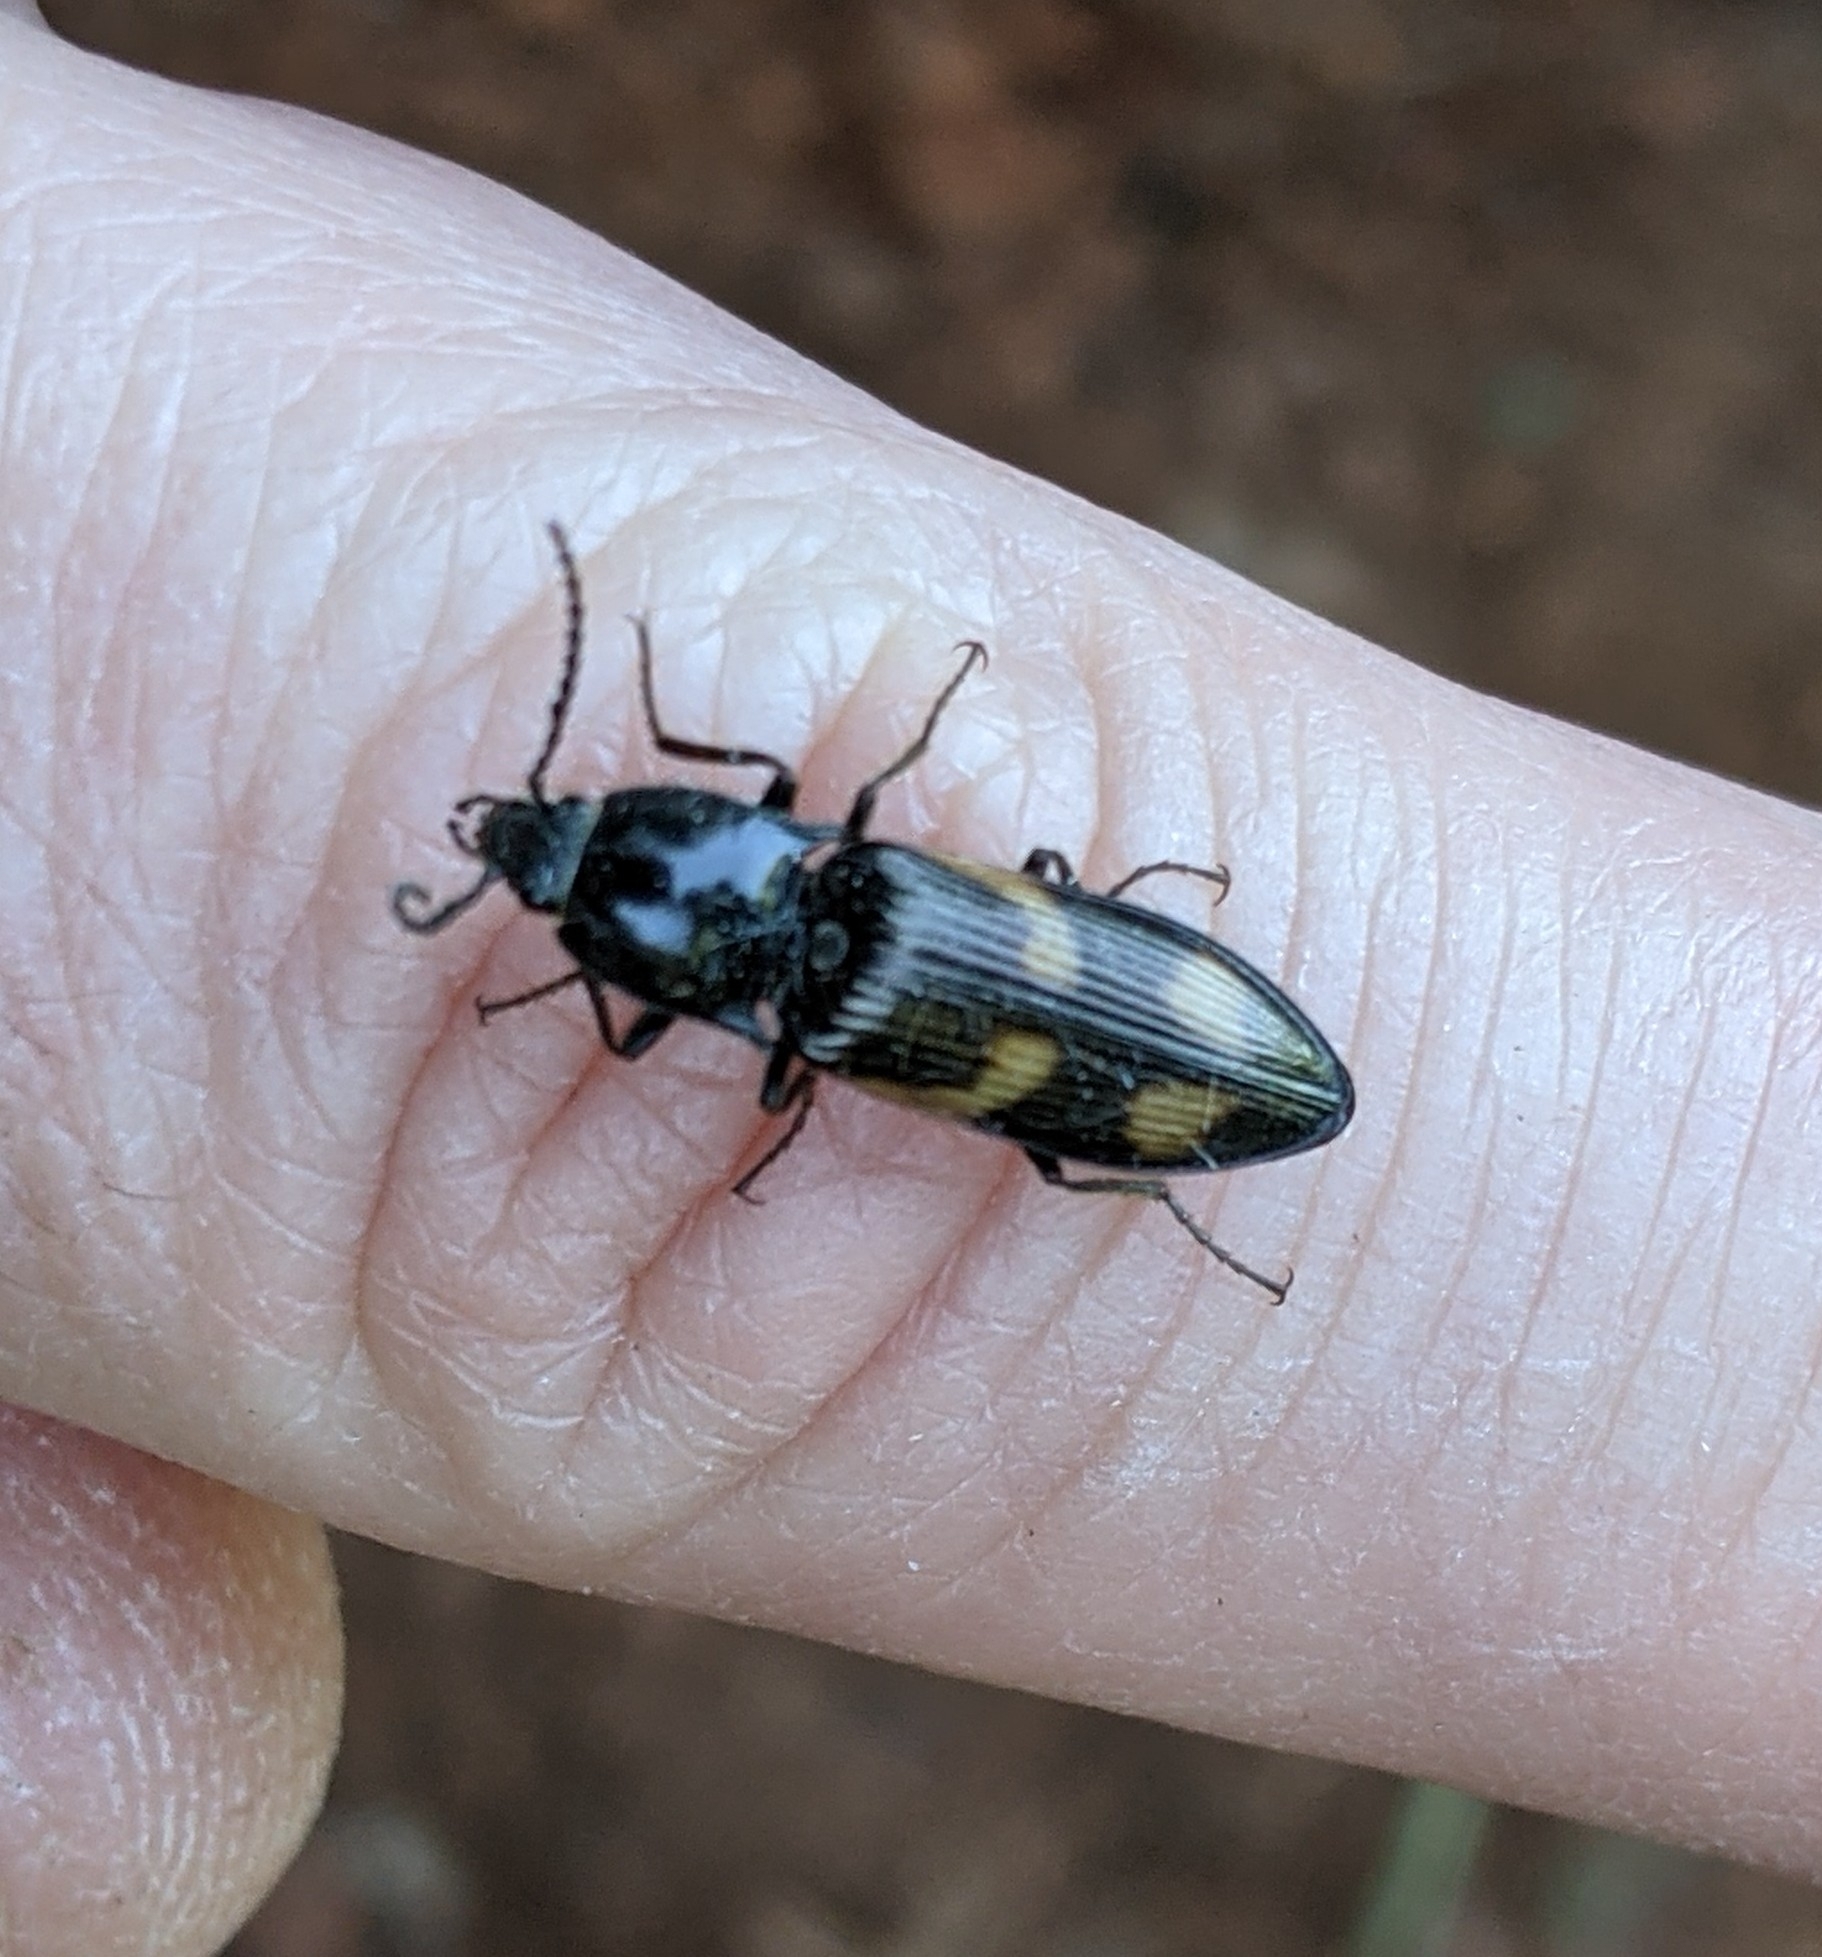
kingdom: Animalia
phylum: Arthropoda
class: Insecta
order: Coleoptera
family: Elateridae
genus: Selatosomus
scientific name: Selatosomus suckleyi
